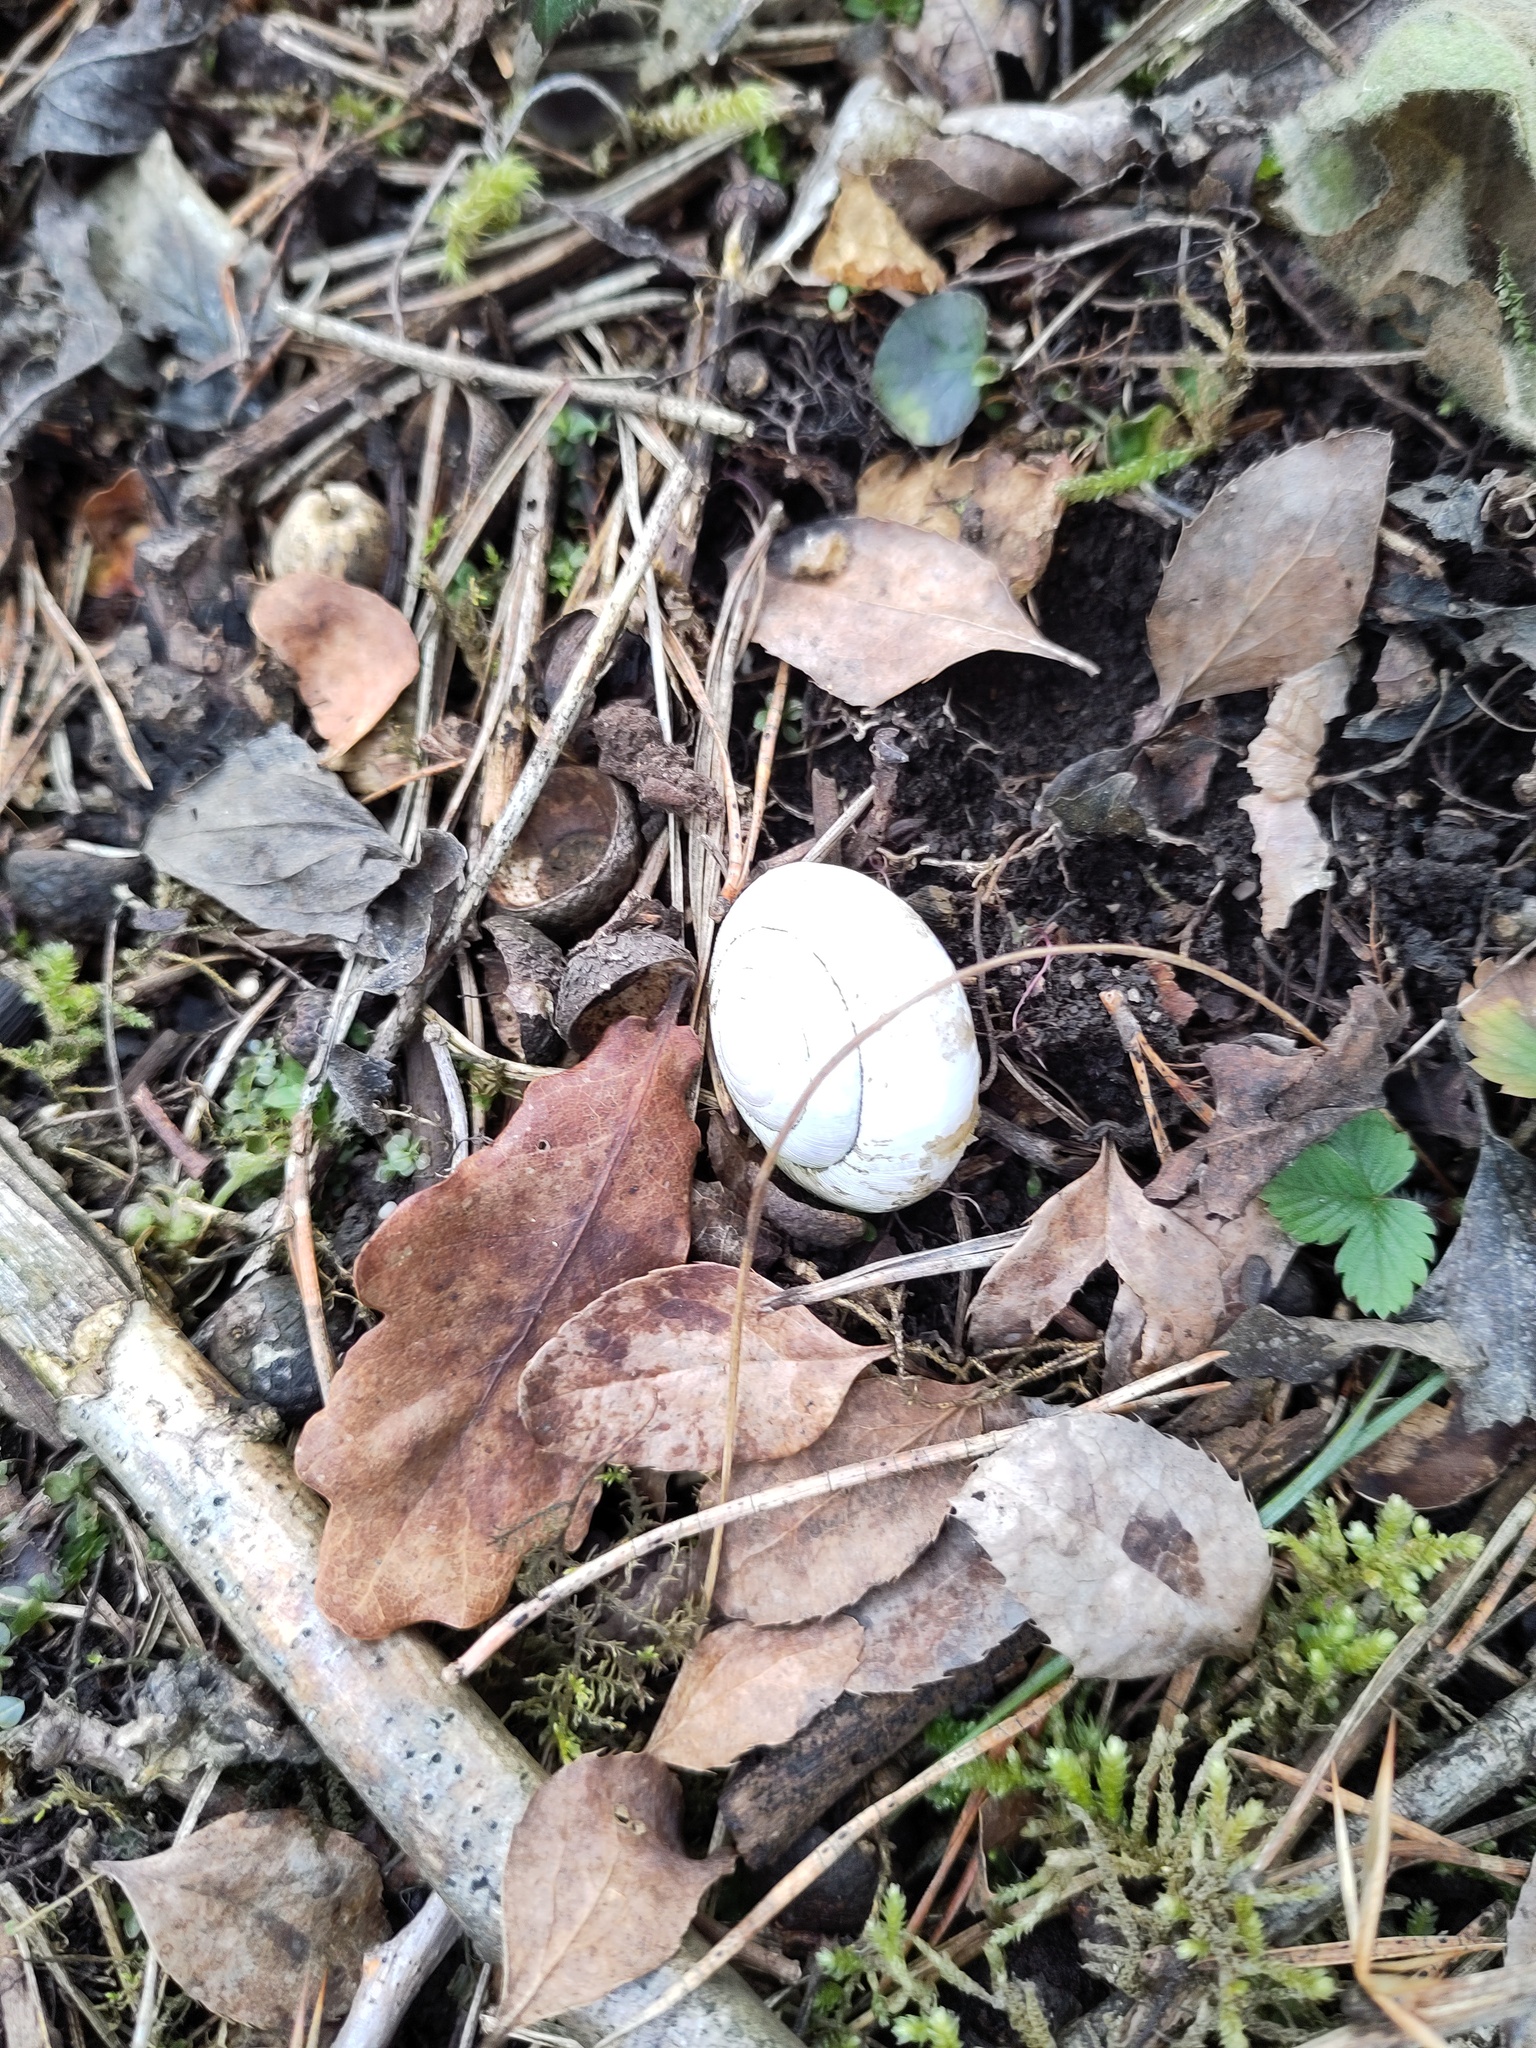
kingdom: Animalia
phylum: Mollusca
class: Gastropoda
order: Stylommatophora
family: Zonitidae
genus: Aegopis
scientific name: Aegopis verticillus
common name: Giant glass snail
